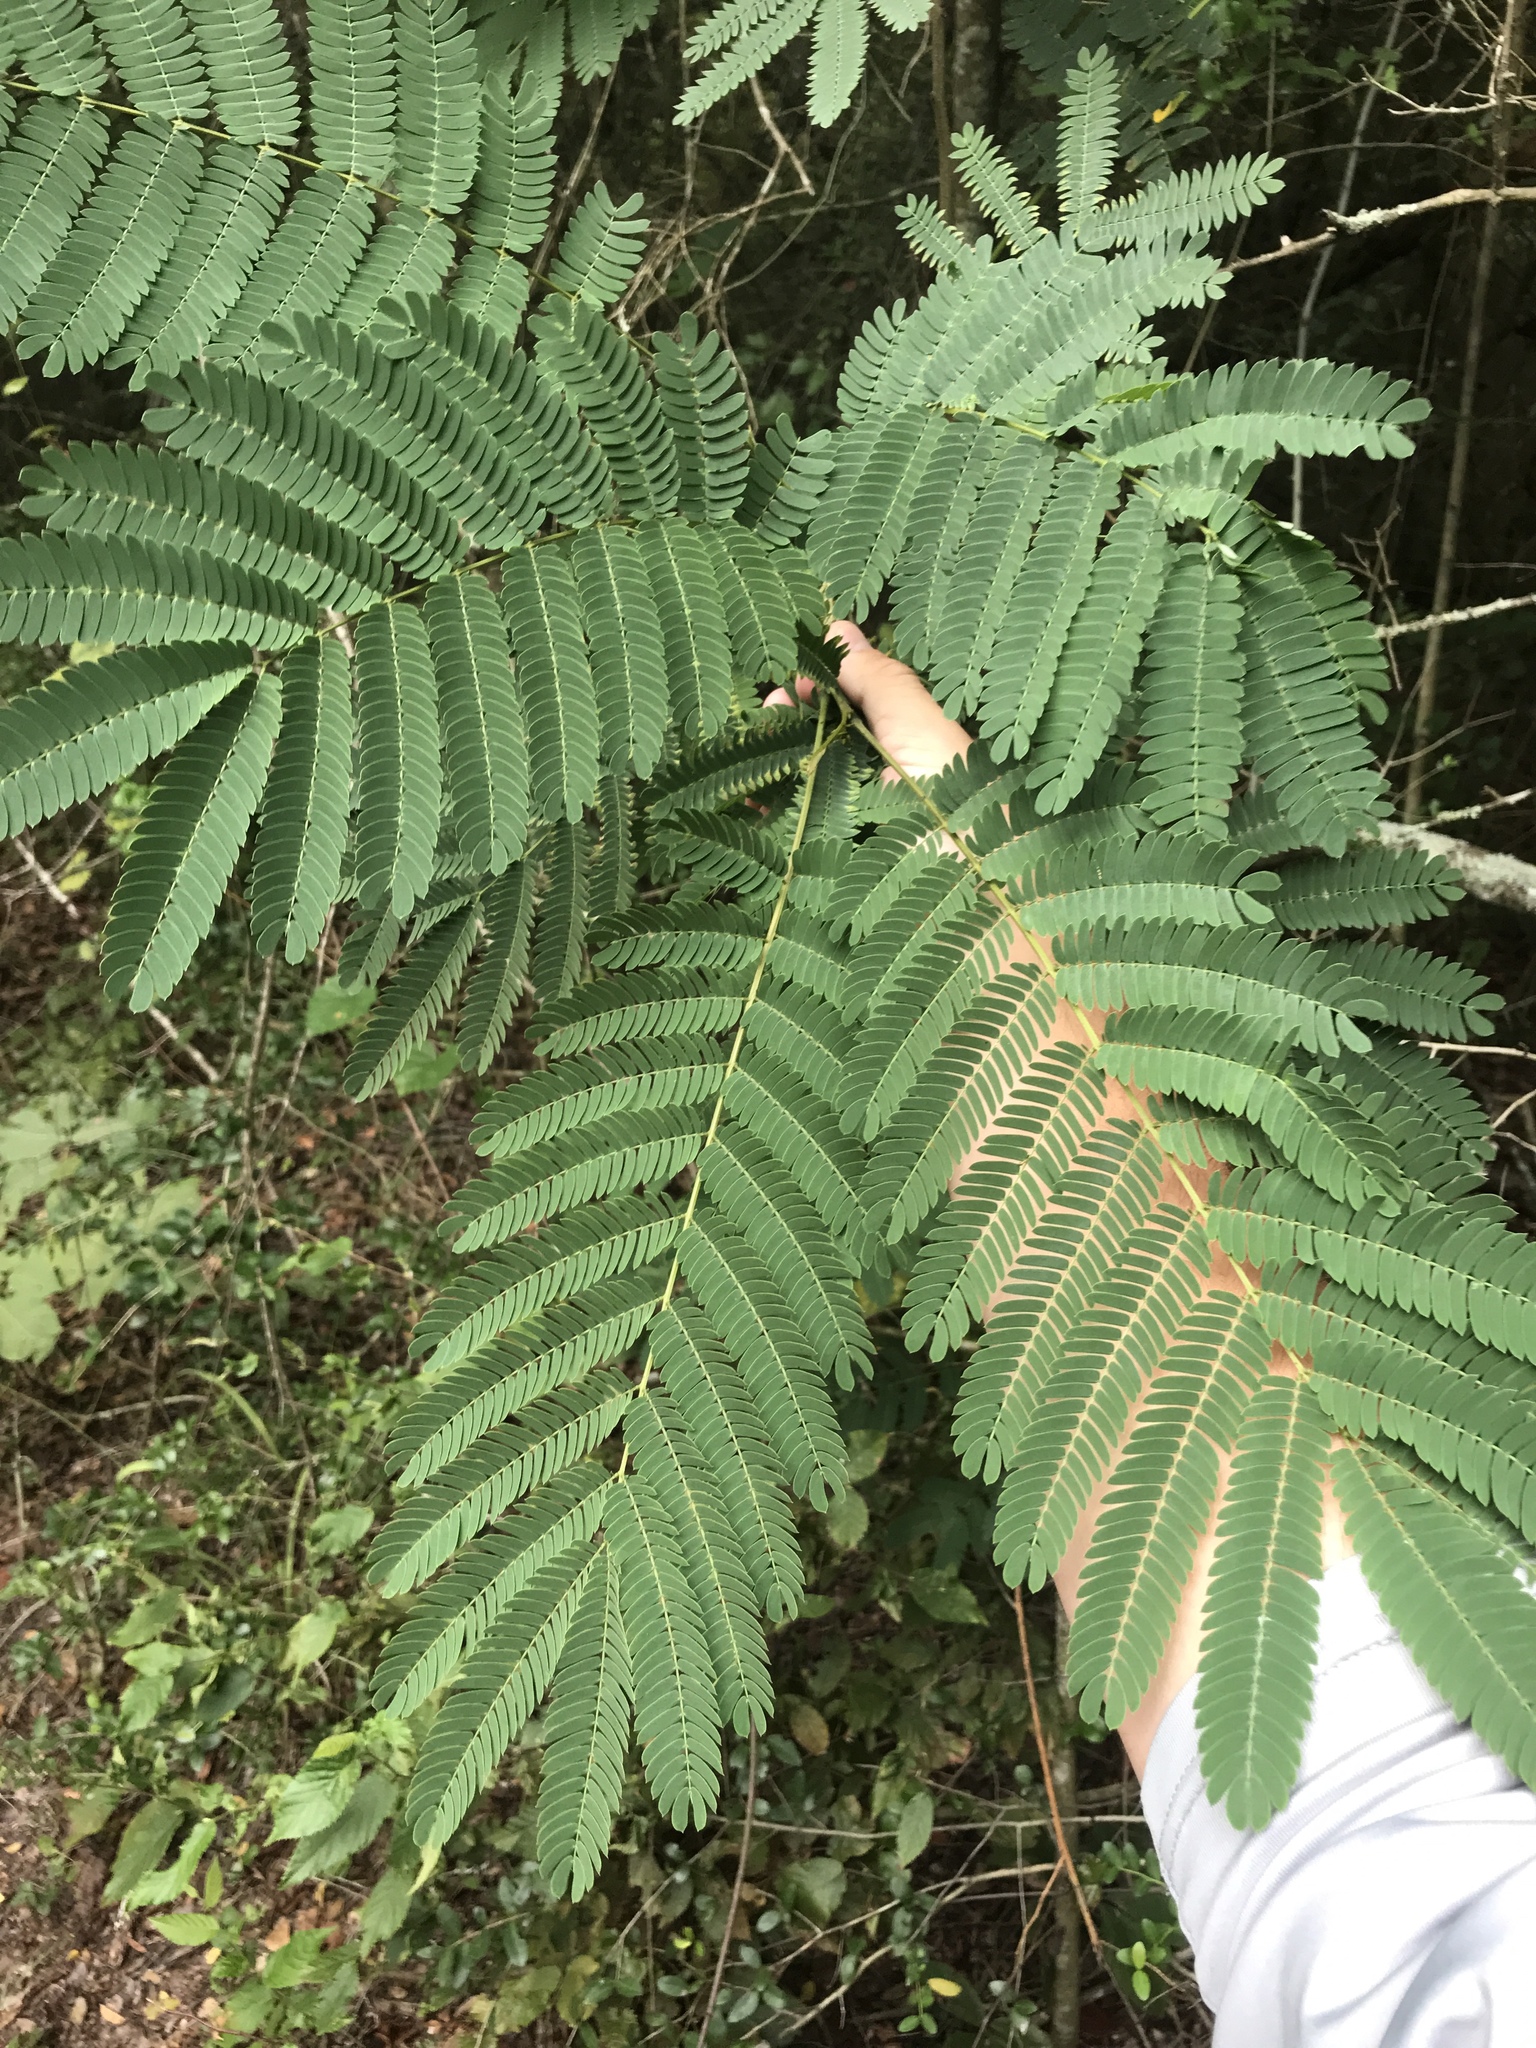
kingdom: Plantae
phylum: Tracheophyta
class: Magnoliopsida
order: Fabales
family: Fabaceae
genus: Albizia
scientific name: Albizia julibrissin
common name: Silktree
